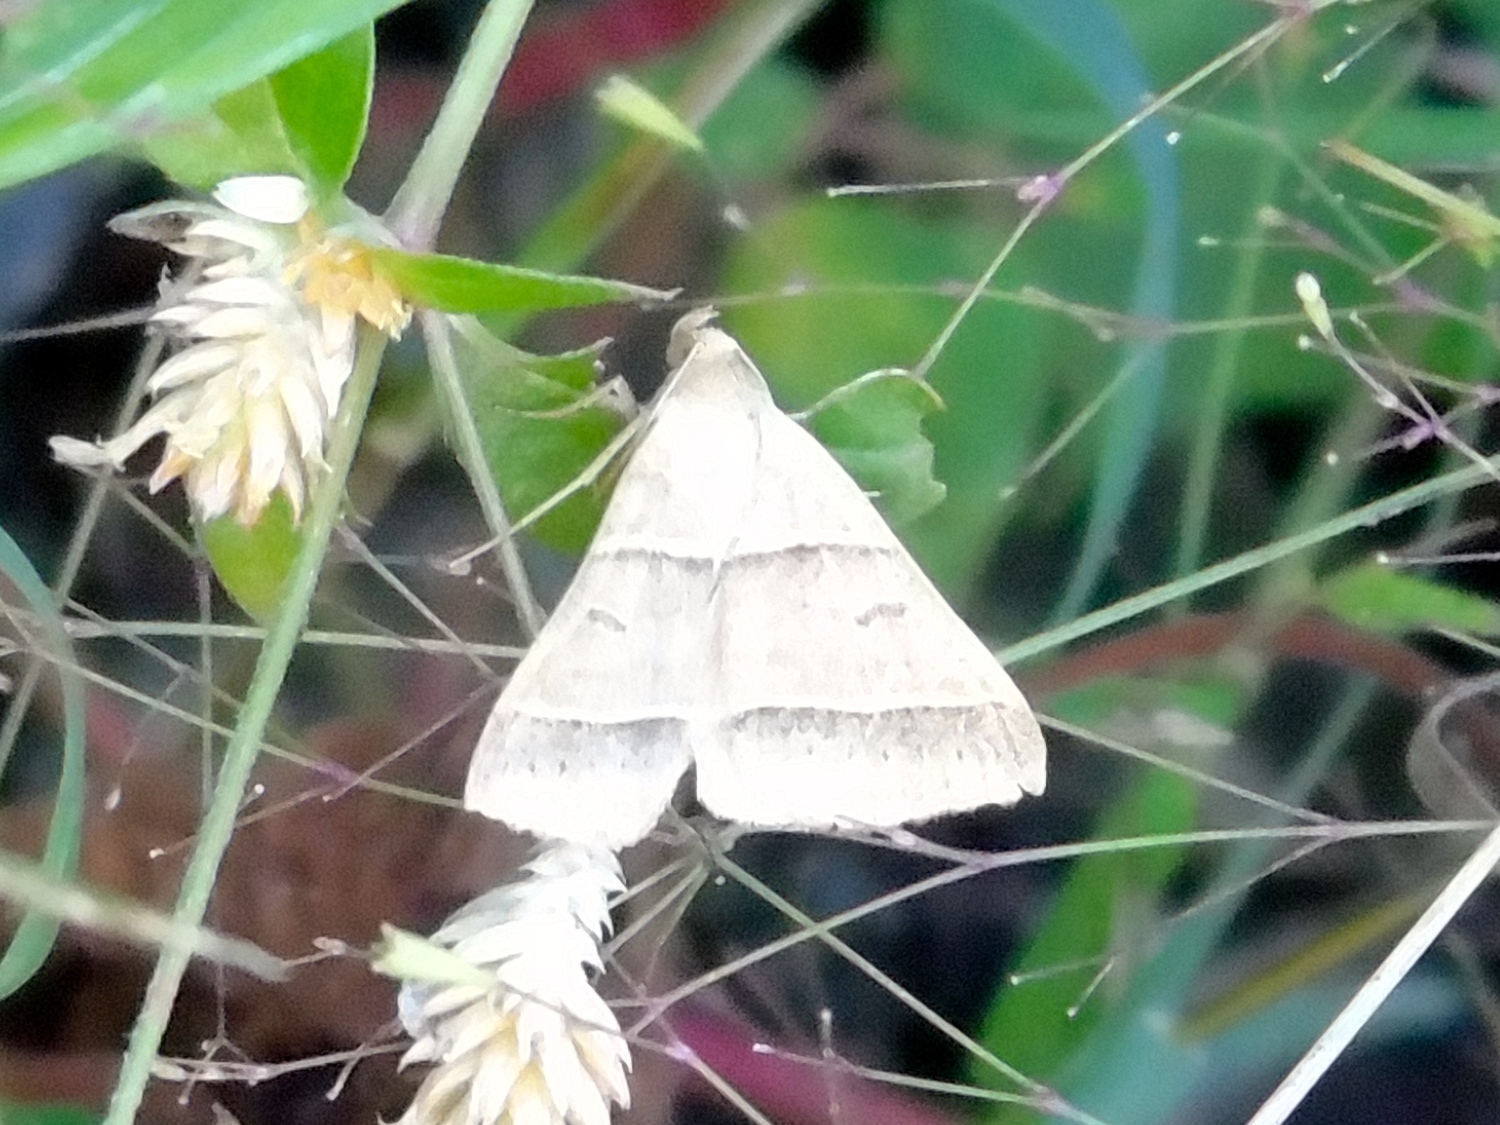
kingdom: Animalia
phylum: Arthropoda
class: Insecta
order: Lepidoptera
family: Erebidae
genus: Ptichodis
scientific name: Ptichodis
